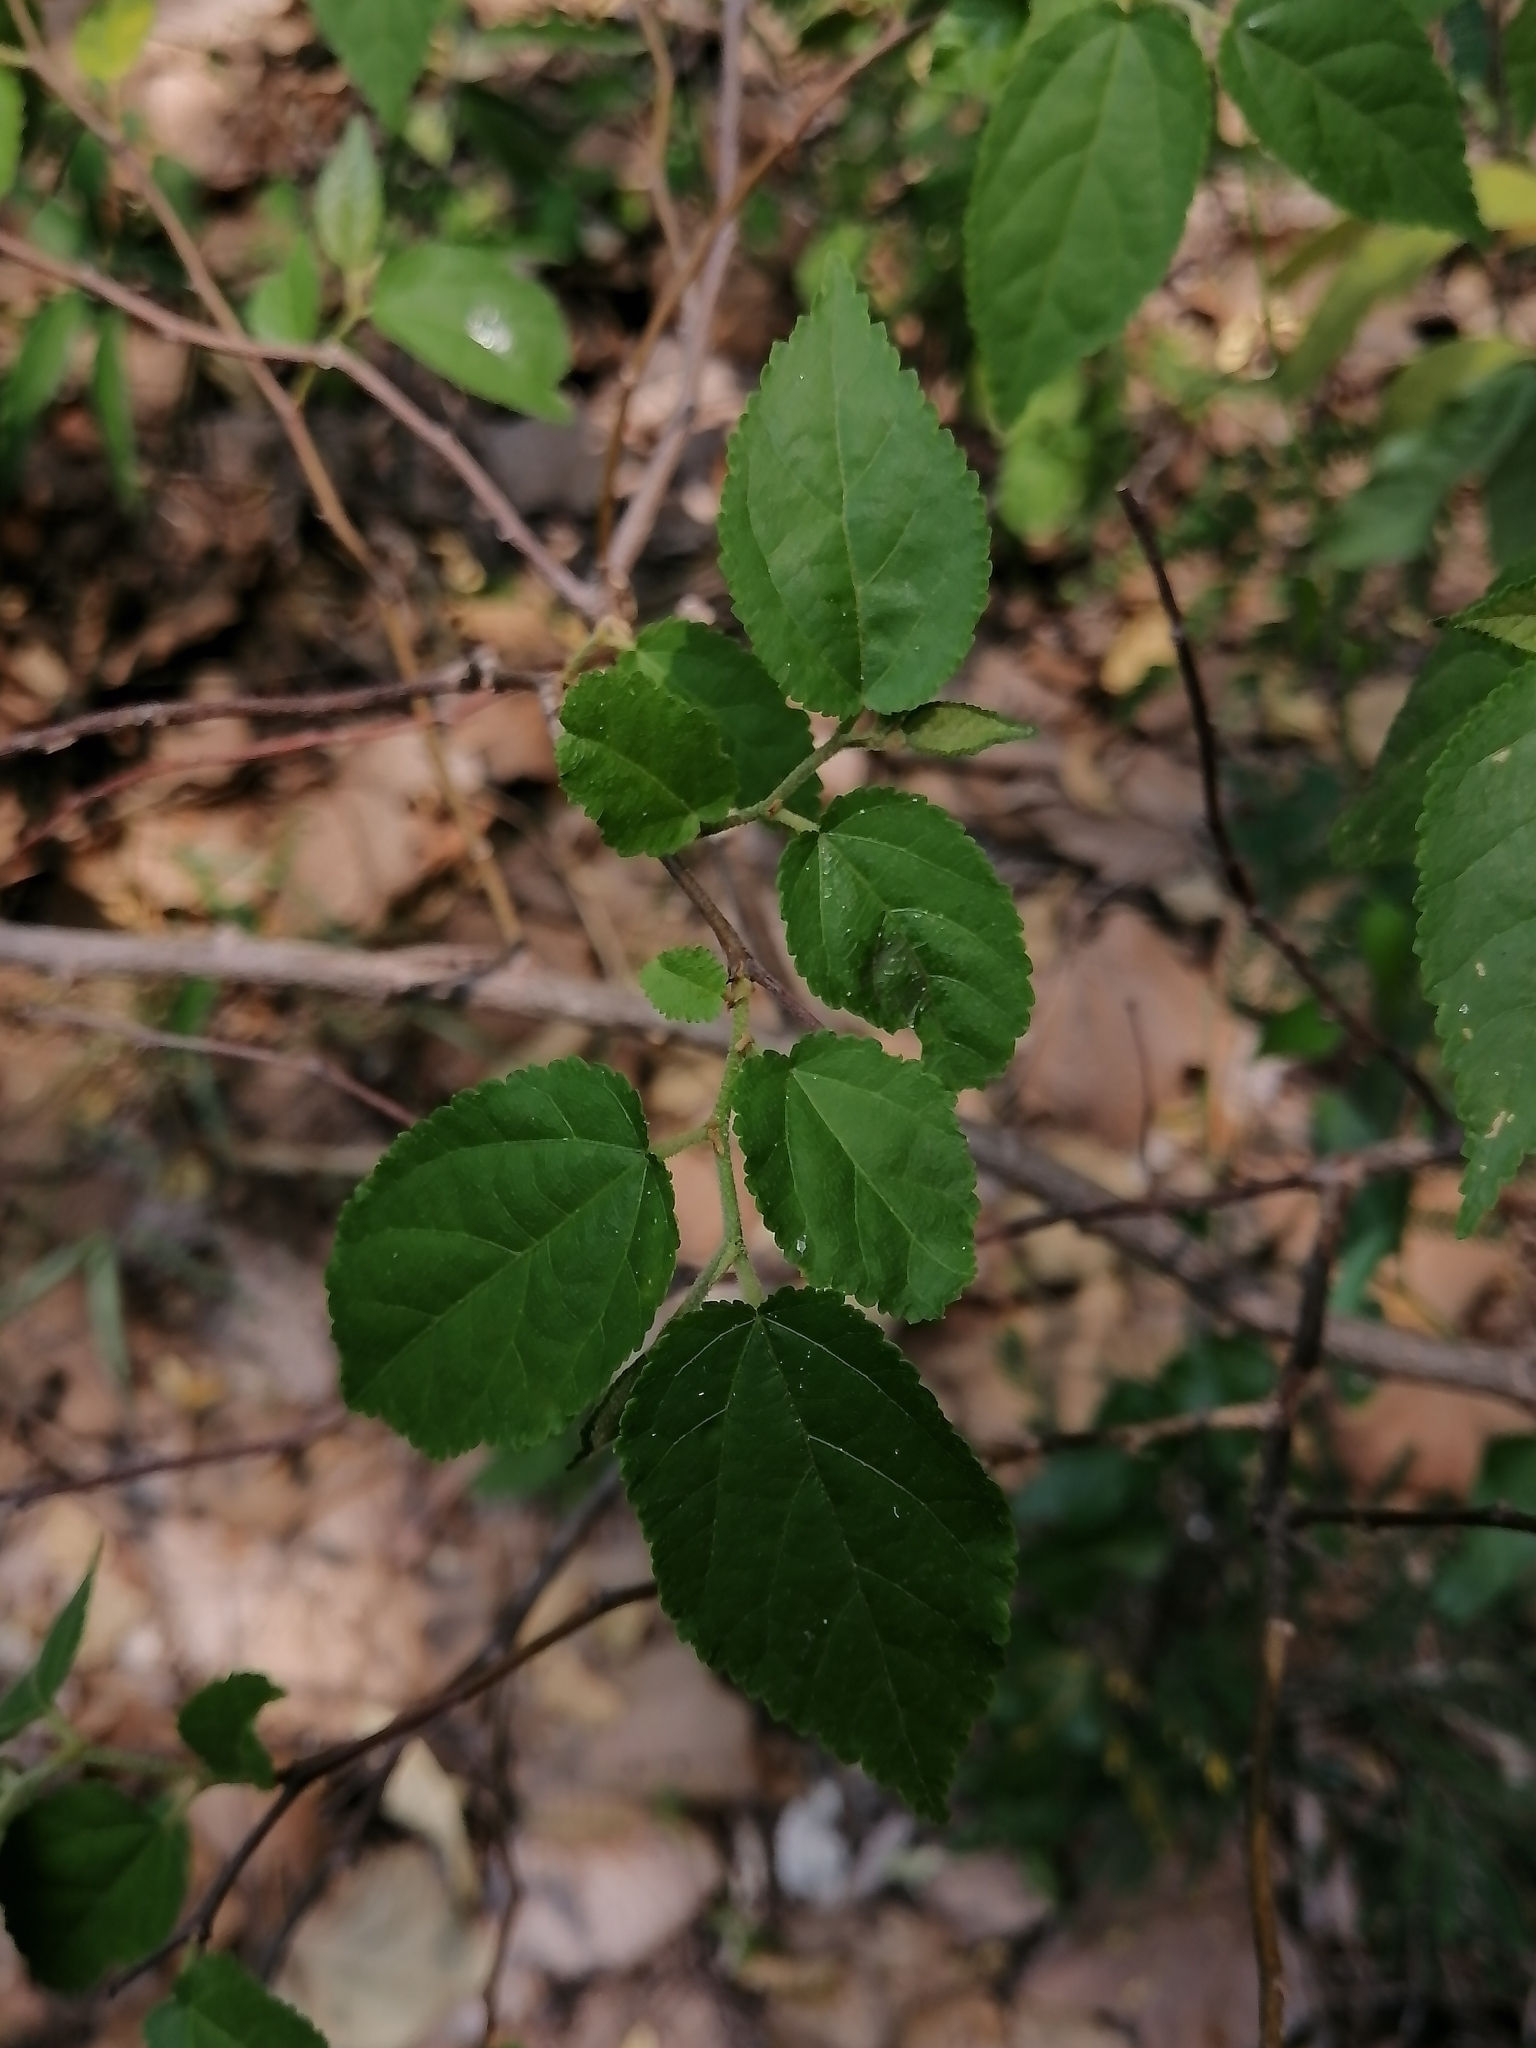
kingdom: Plantae
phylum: Tracheophyta
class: Magnoliopsida
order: Malvales
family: Malvaceae
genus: Guazuma
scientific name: Guazuma ulmifolia
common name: Bastard-cedar
